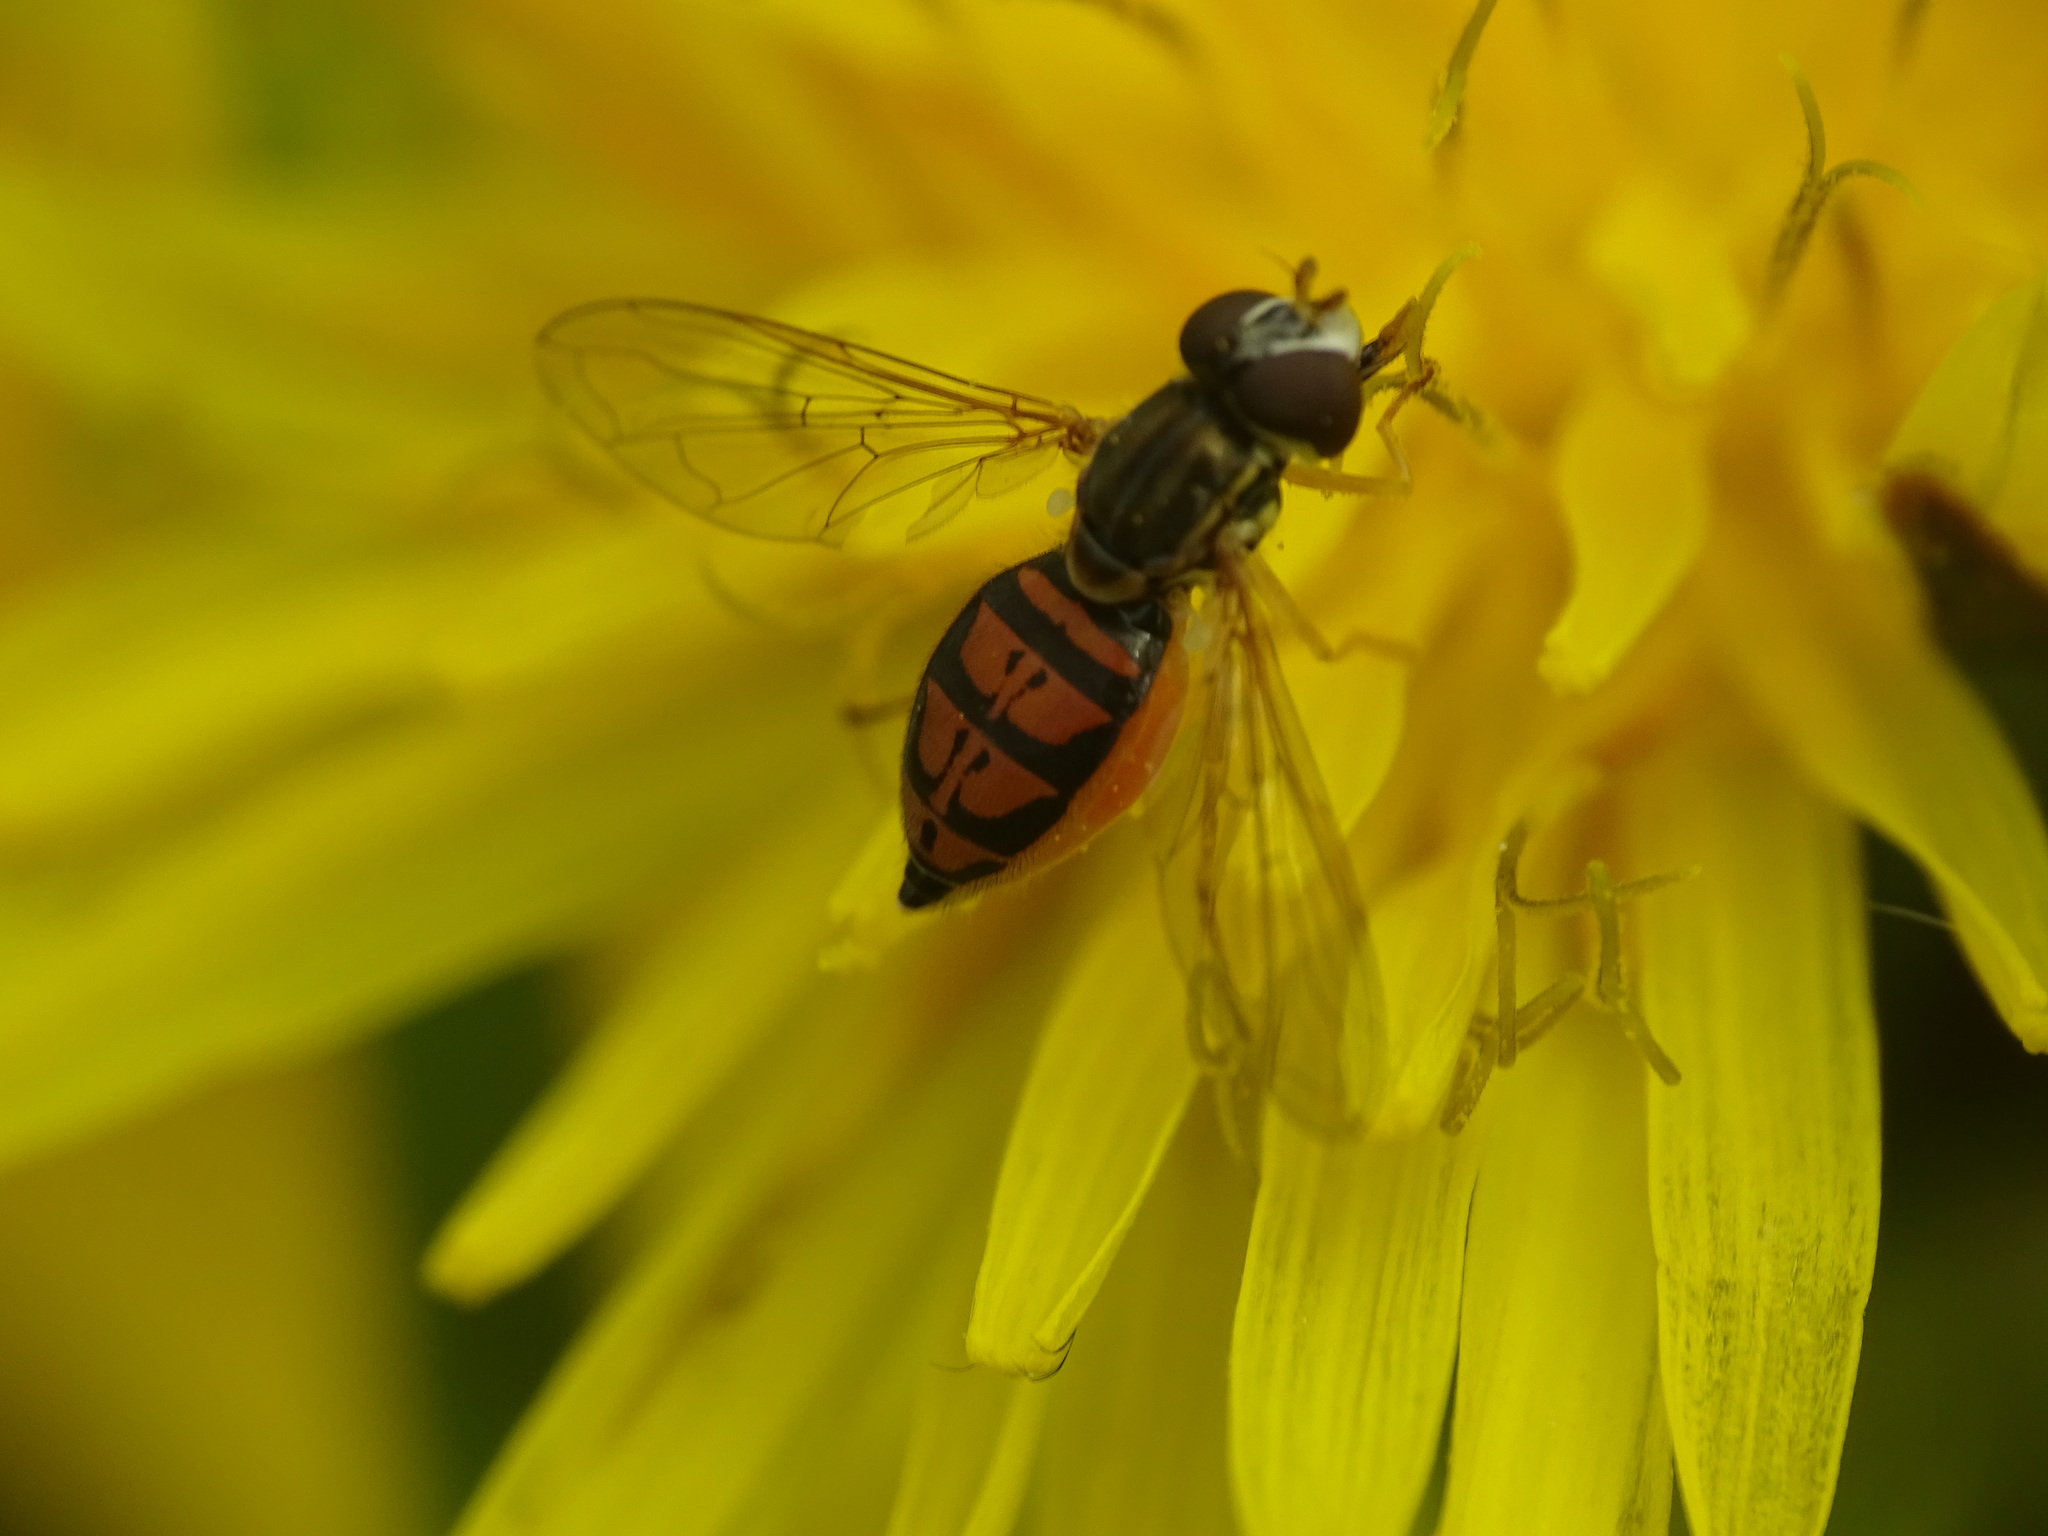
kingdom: Animalia
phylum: Arthropoda
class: Insecta
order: Diptera
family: Syrphidae
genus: Toxomerus
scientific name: Toxomerus marginatus
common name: Syrphid fly
